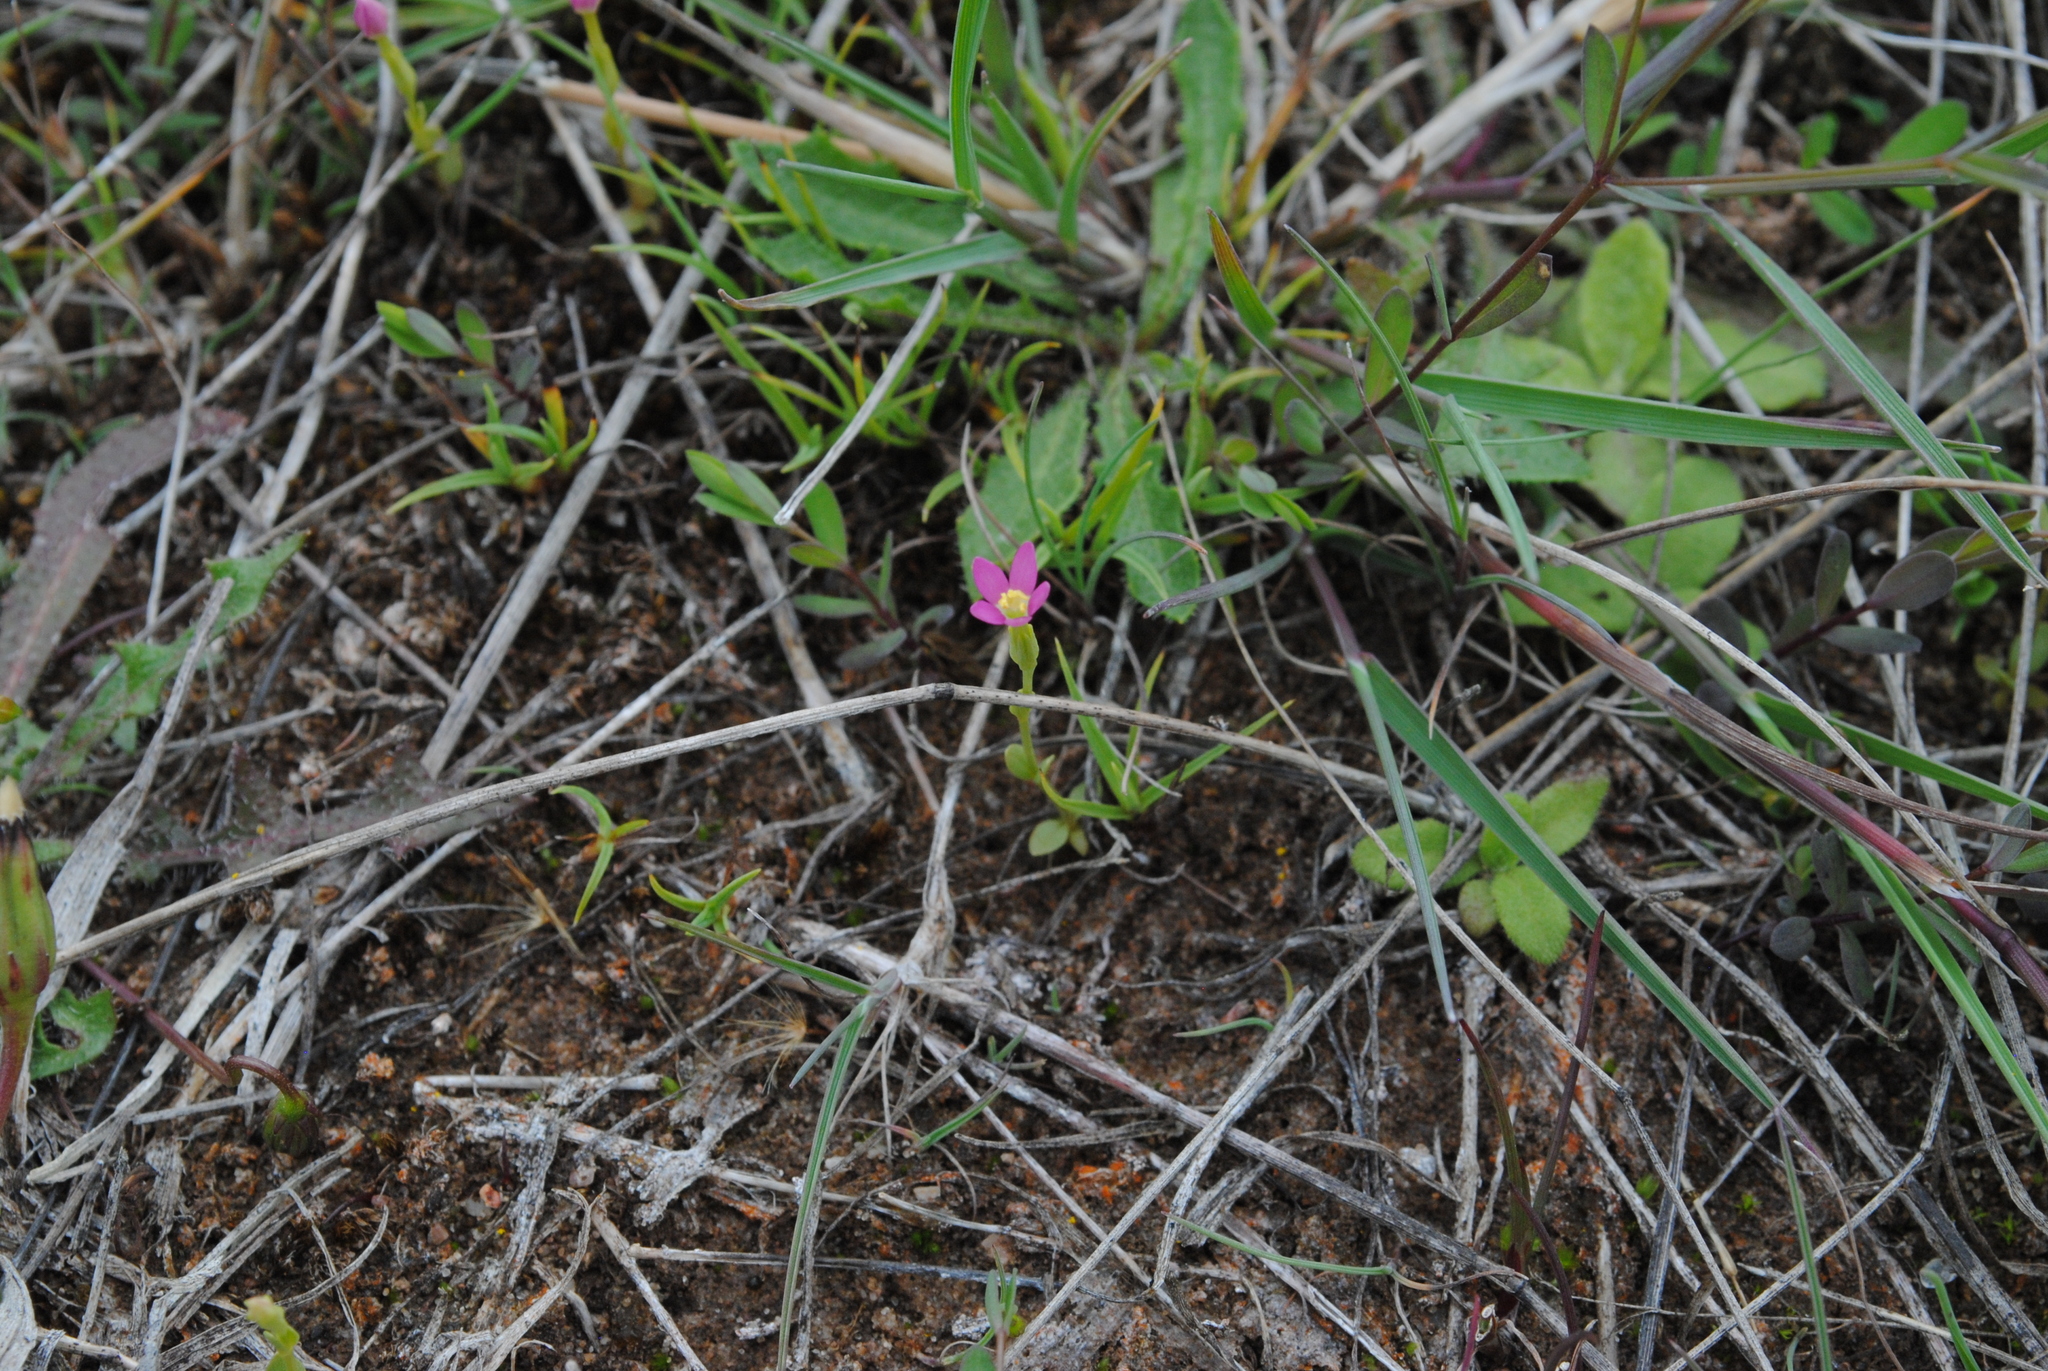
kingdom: Plantae
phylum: Tracheophyta
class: Magnoliopsida
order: Gentianales
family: Gentianaceae
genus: Centaurium
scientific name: Centaurium pulchellum
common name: Lesser centaury
